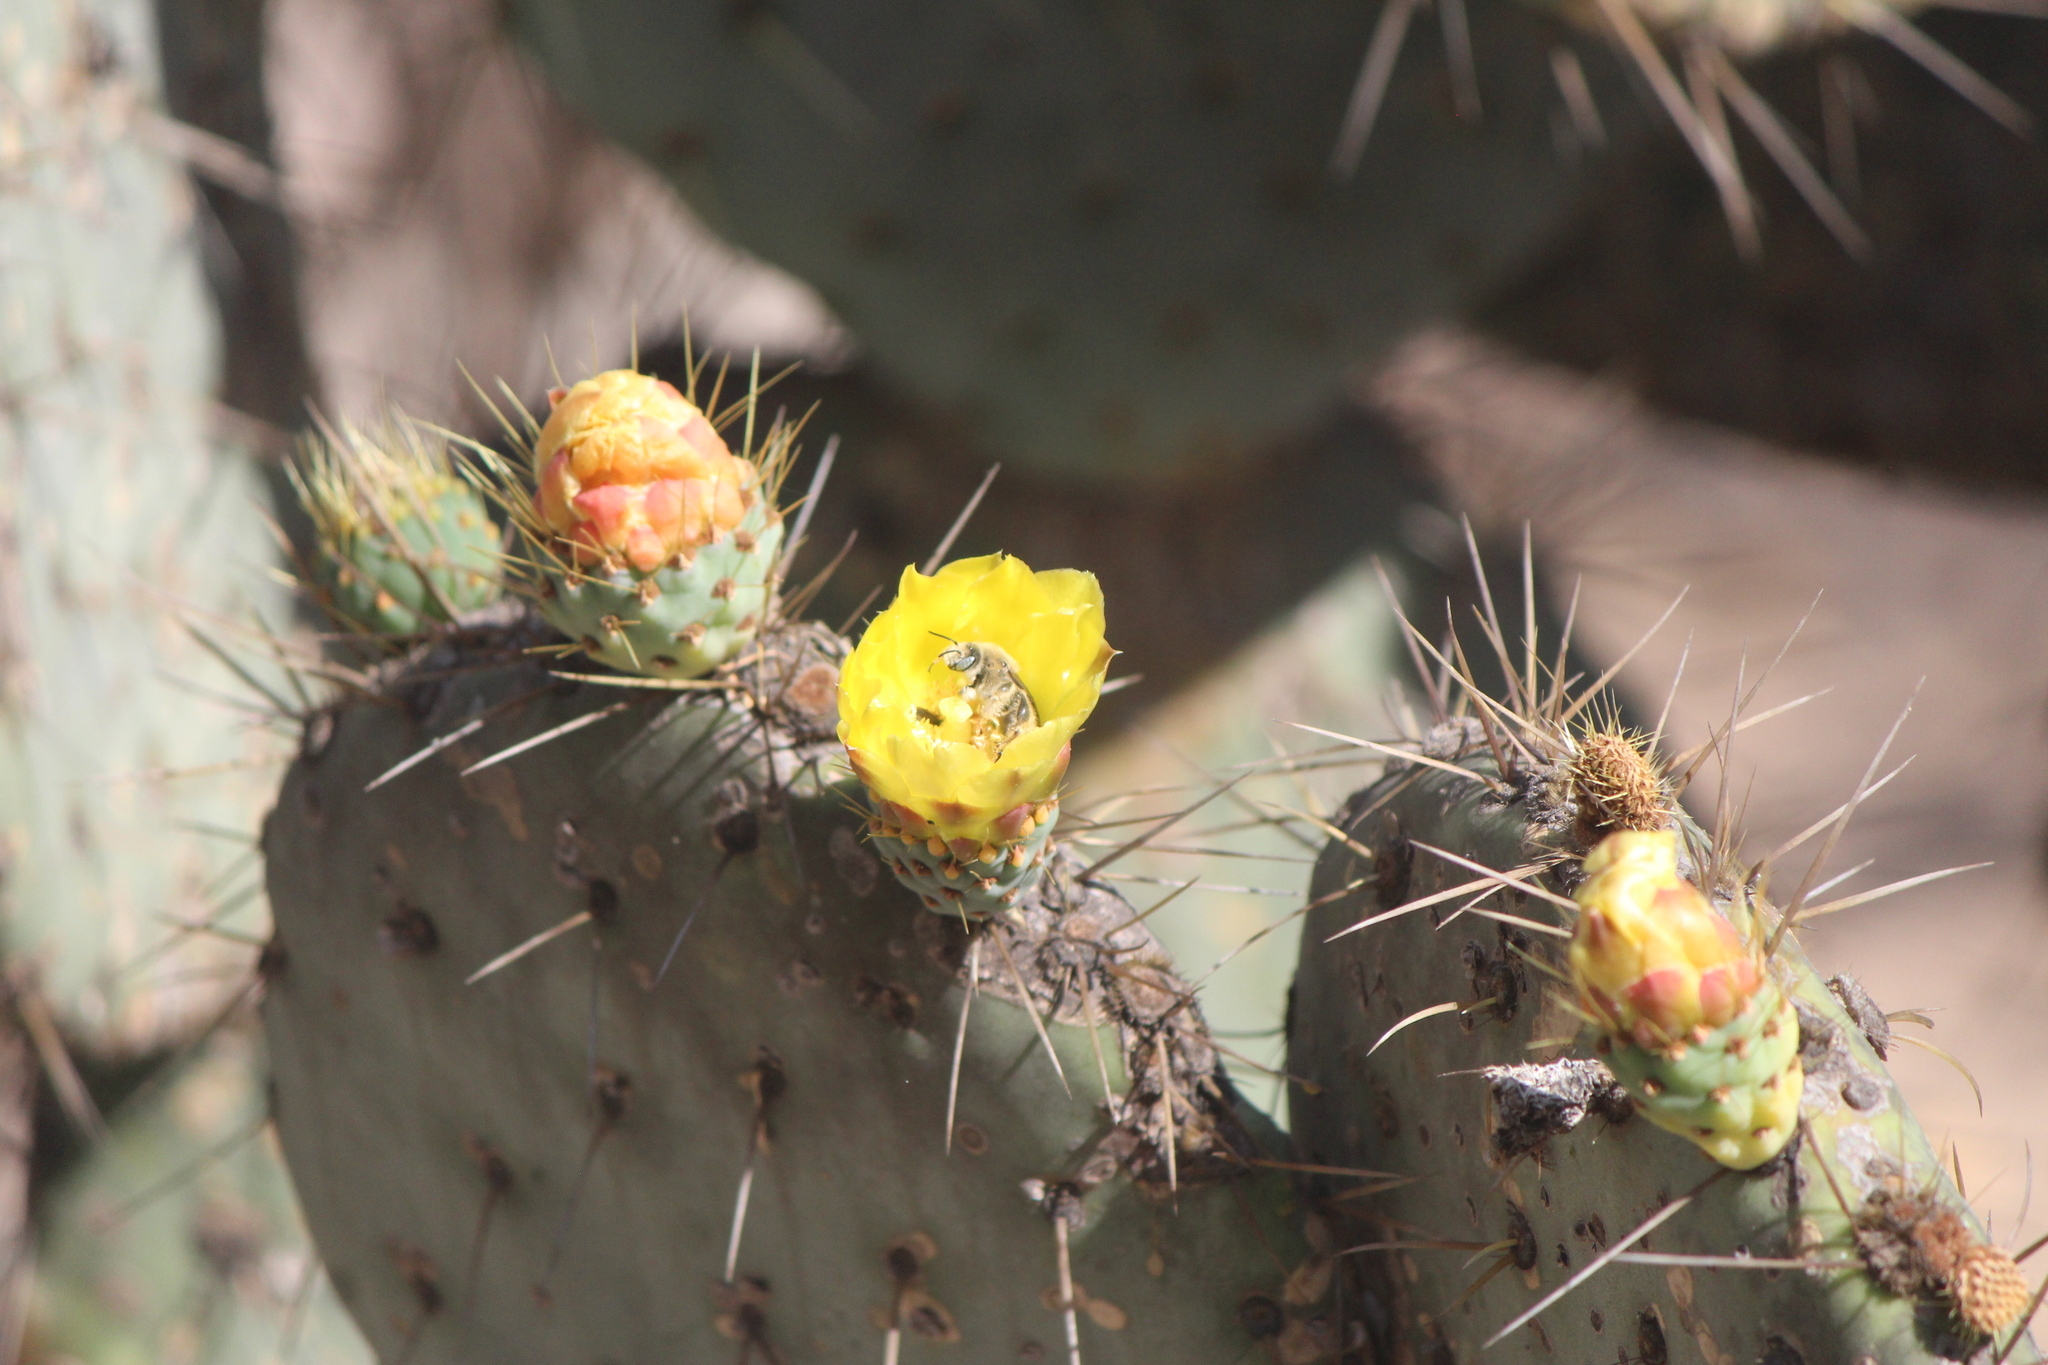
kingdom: Animalia
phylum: Arthropoda
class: Insecta
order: Hymenoptera
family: Apidae
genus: Diadasia
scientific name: Diadasia
